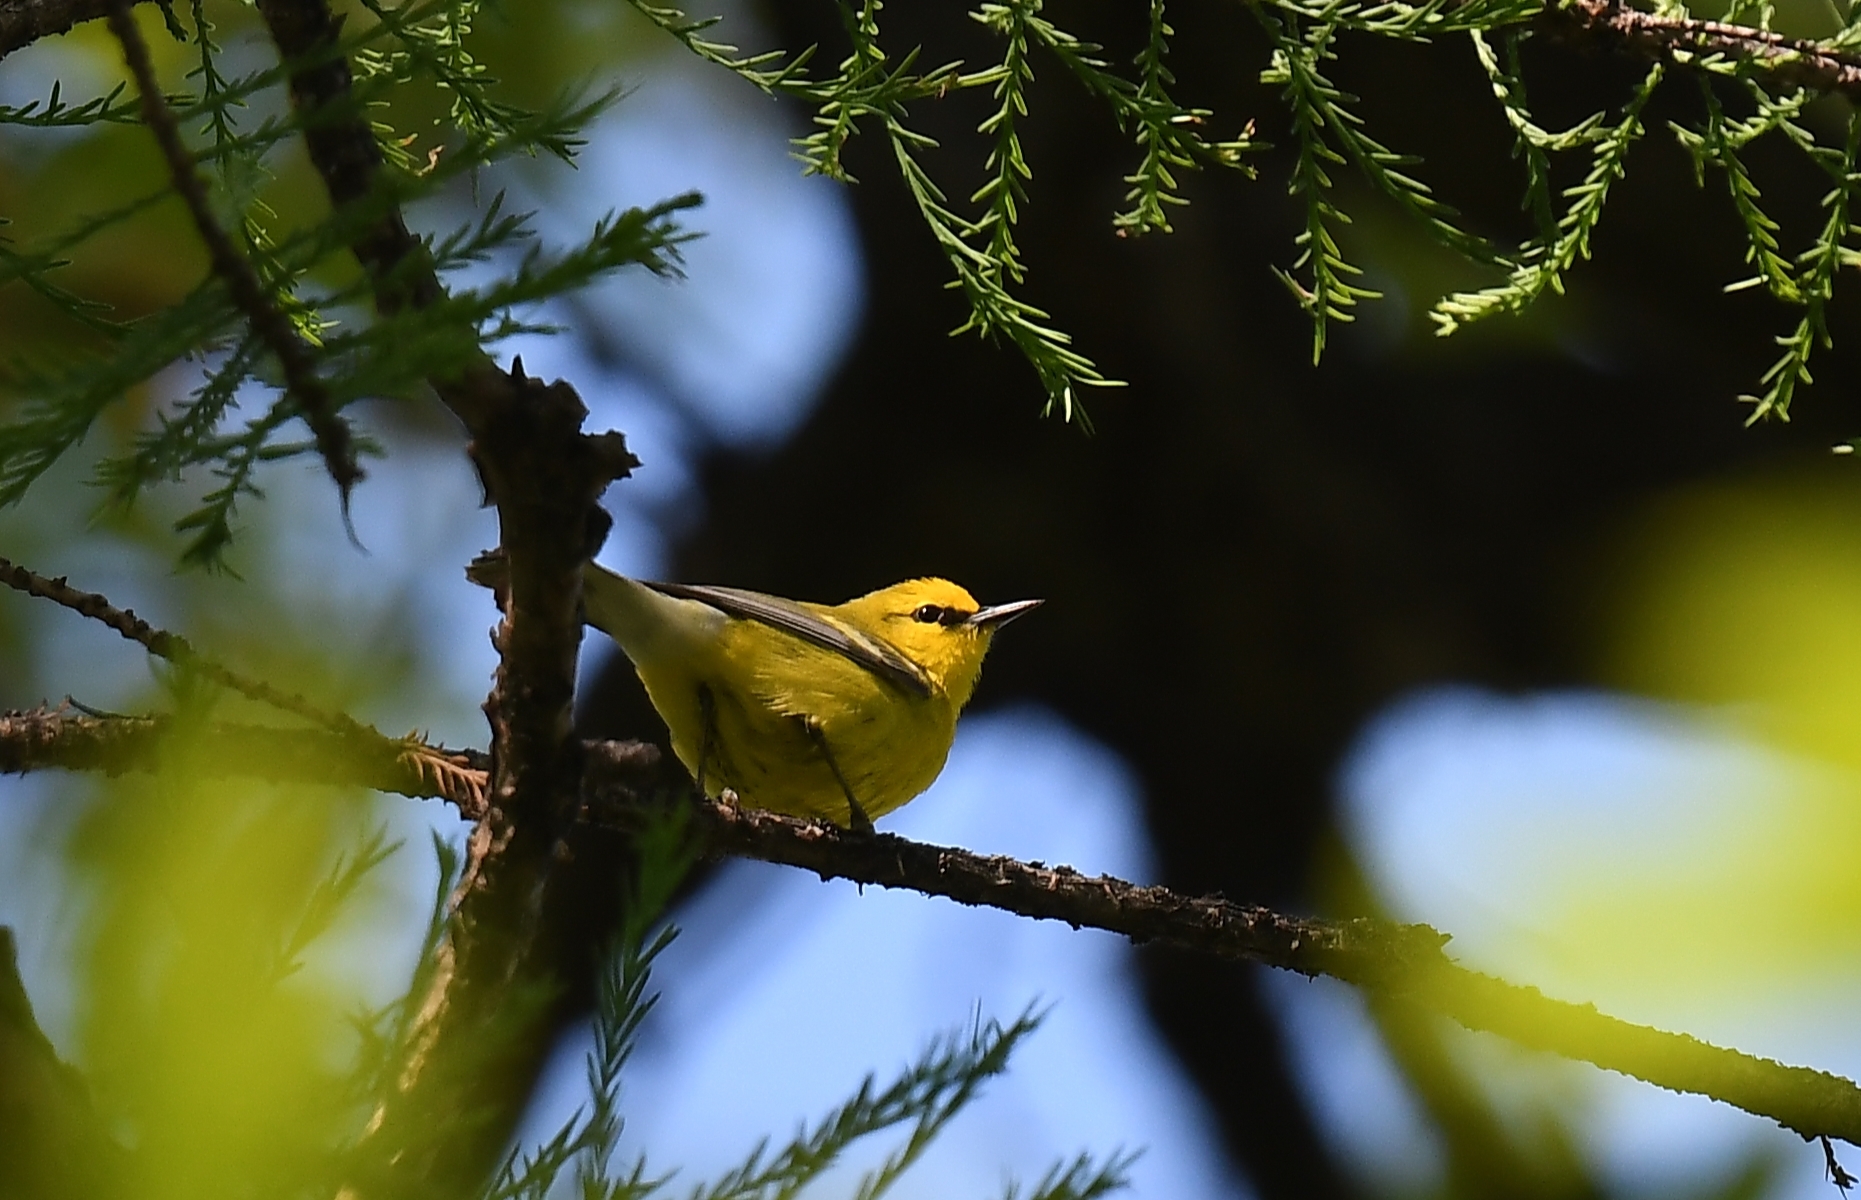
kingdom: Animalia
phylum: Chordata
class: Aves
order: Passeriformes
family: Parulidae
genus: Vermivora
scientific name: Vermivora cyanoptera
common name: Blue-winged warbler
